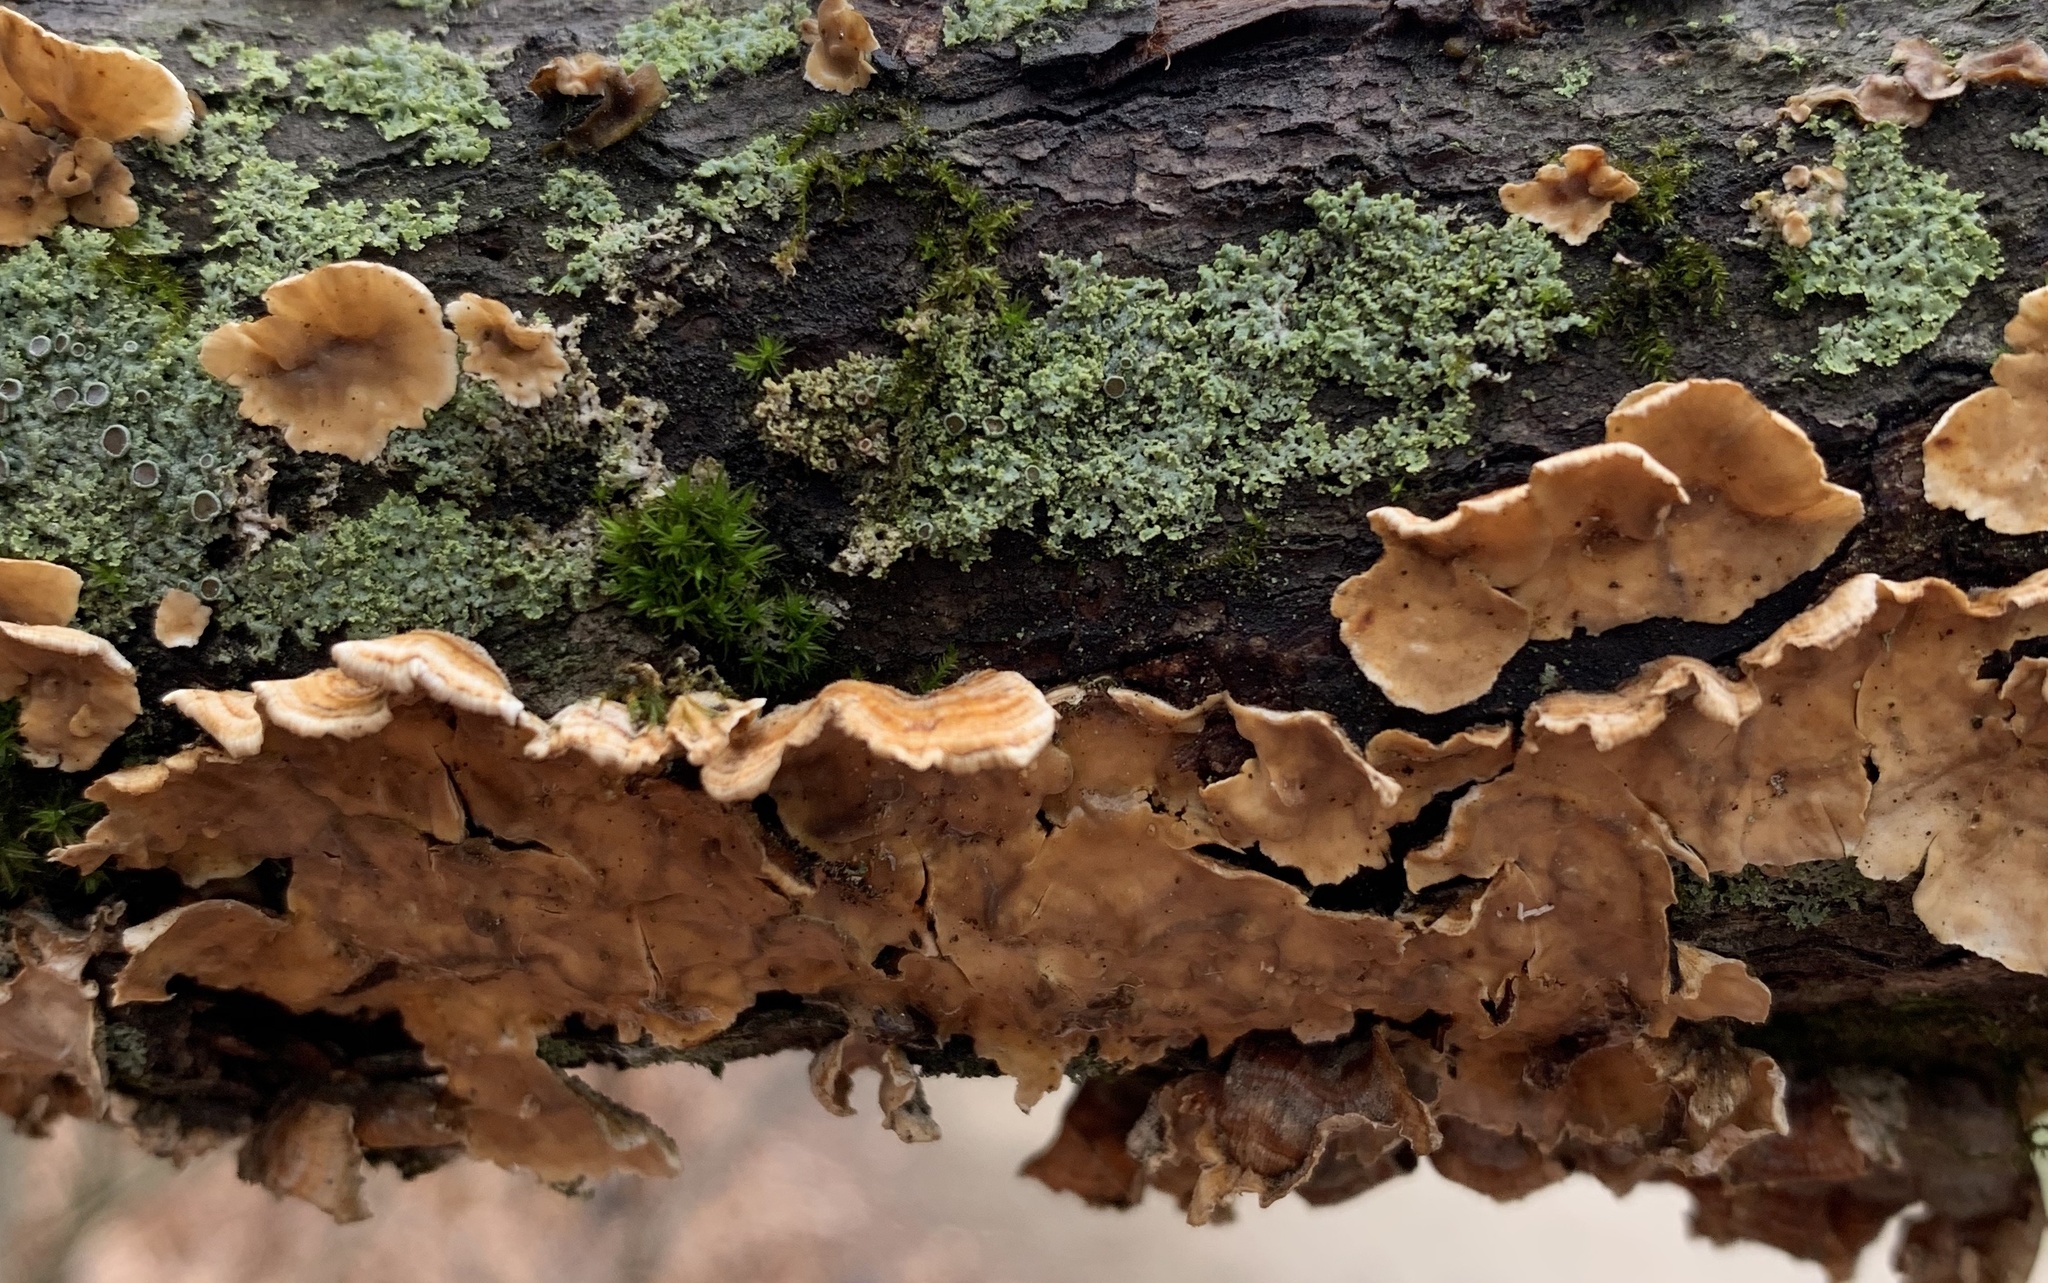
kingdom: Fungi
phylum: Basidiomycota
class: Agaricomycetes
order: Russulales
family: Stereaceae
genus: Stereum
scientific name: Stereum complicatum
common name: Crowded parchment
